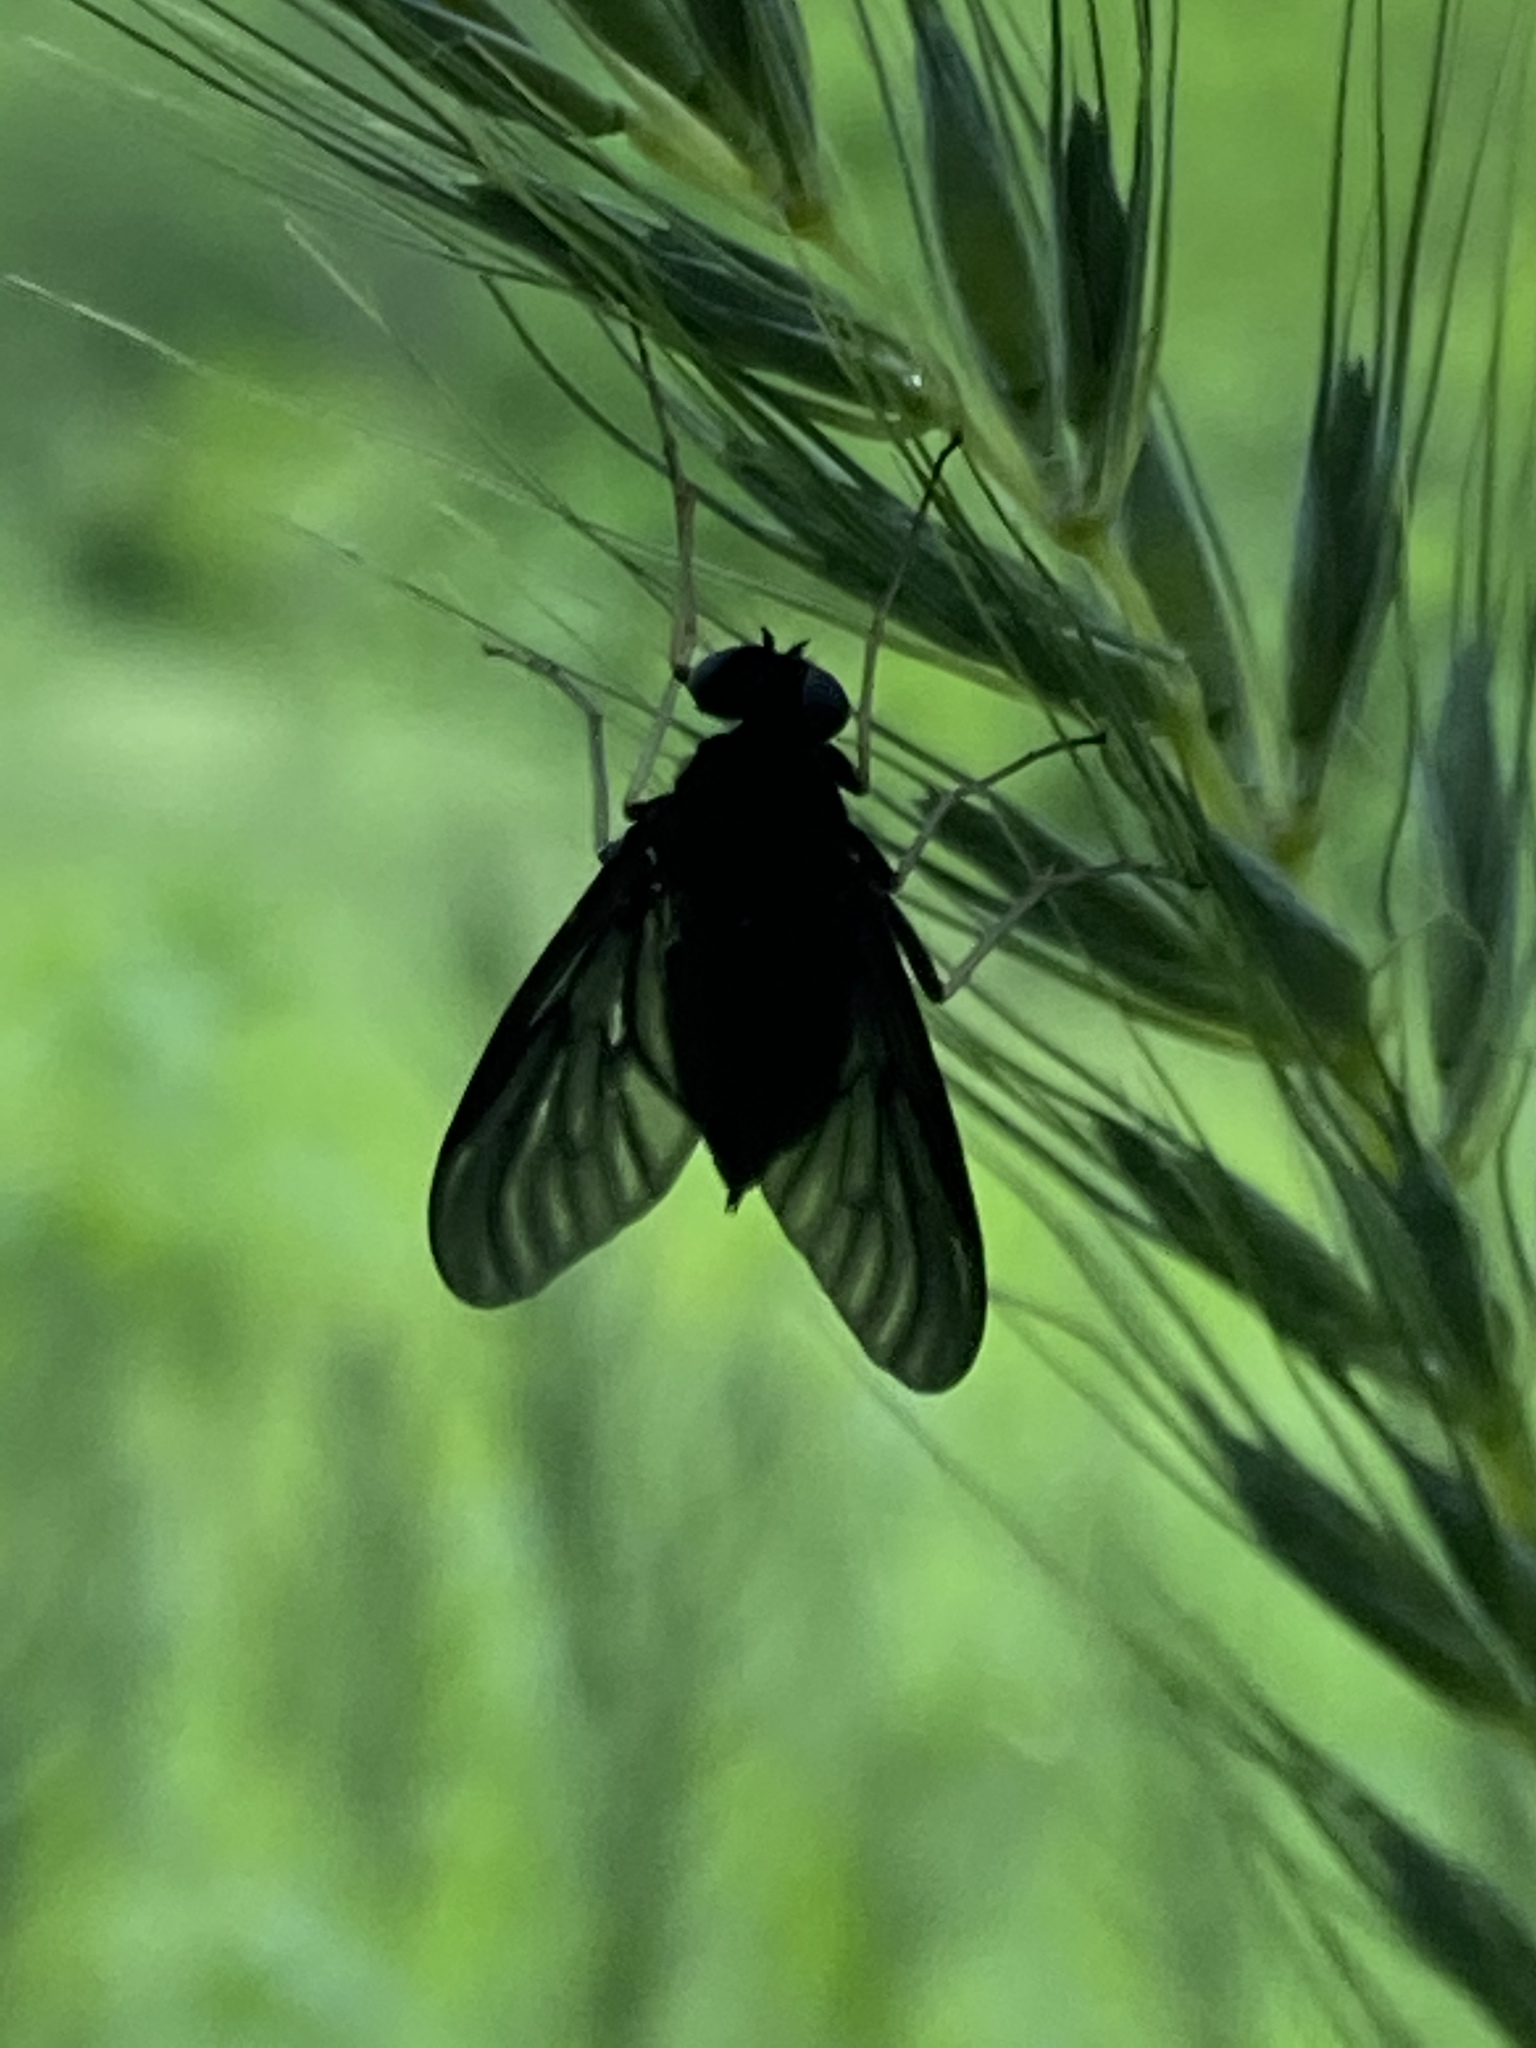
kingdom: Animalia
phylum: Arthropoda
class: Insecta
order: Diptera
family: Rhagionidae
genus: Chrysopilus
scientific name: Chrysopilus velutinus
